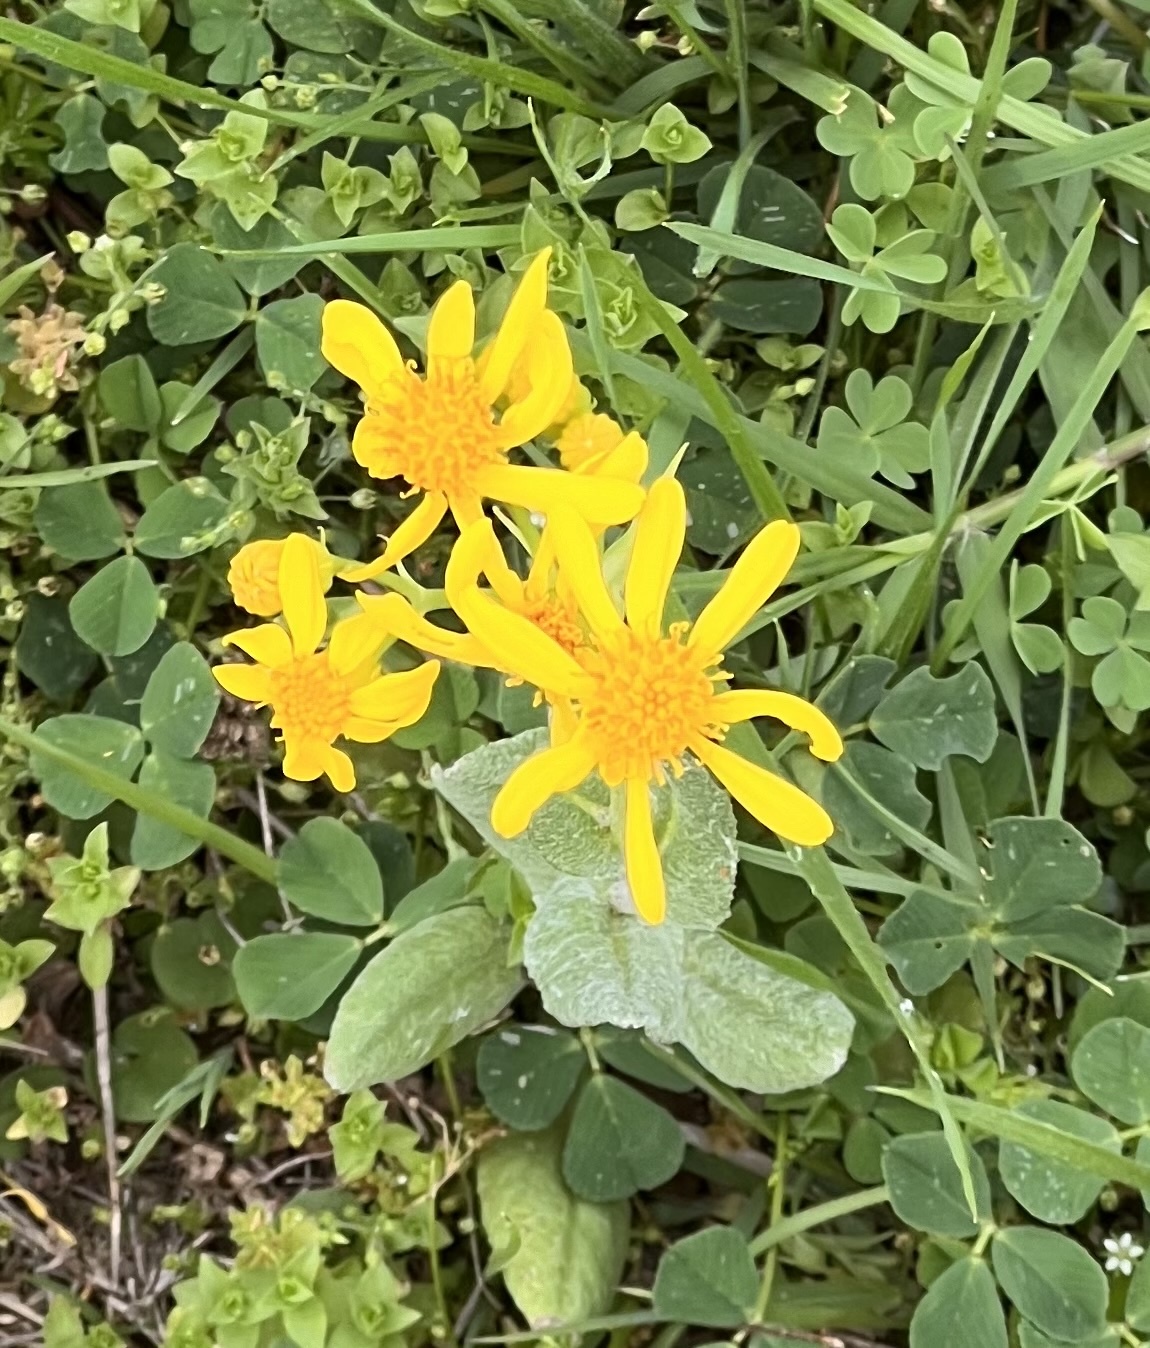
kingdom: Plantae
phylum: Tracheophyta
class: Magnoliopsida
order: Asterales
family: Asteraceae
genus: Senecio
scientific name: Senecio ampullaceus
